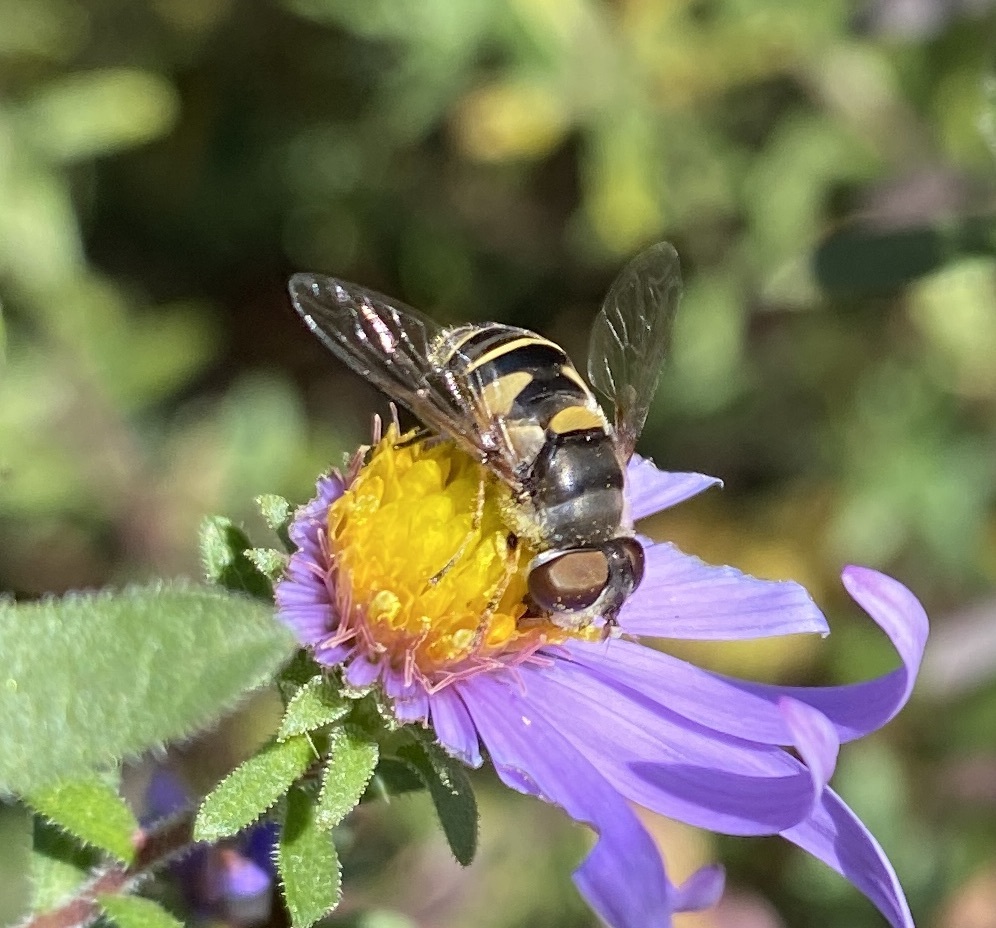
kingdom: Animalia
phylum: Arthropoda
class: Insecta
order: Diptera
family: Syrphidae
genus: Eristalis
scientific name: Eristalis transversa
